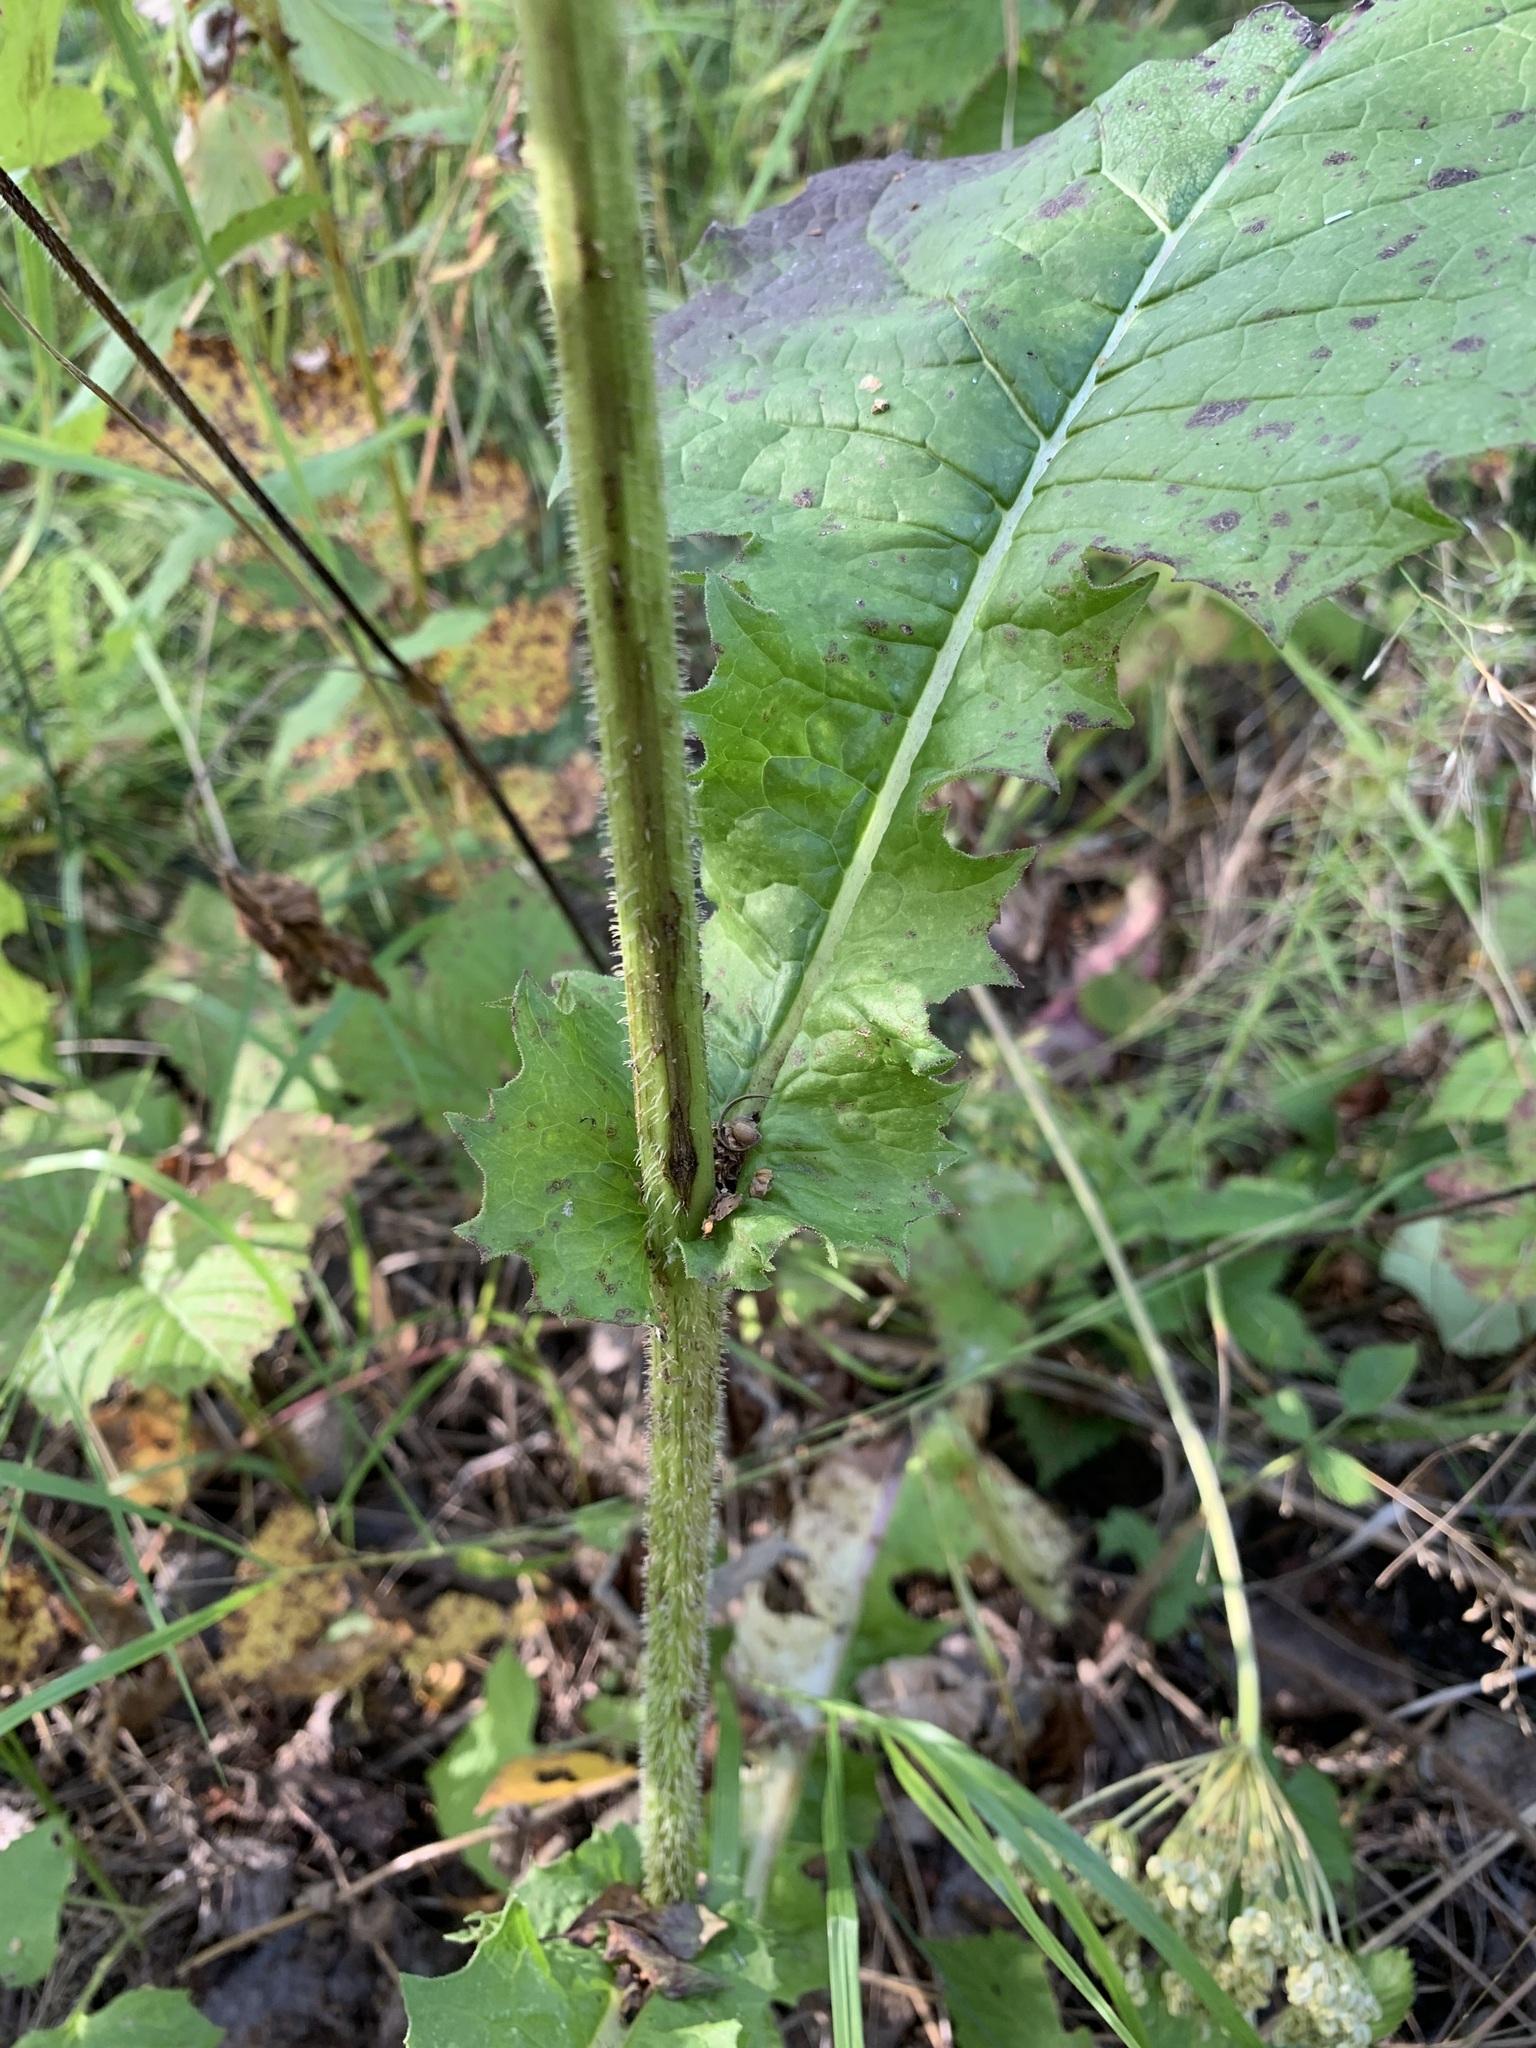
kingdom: Plantae
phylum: Tracheophyta
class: Magnoliopsida
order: Asterales
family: Asteraceae
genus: Crepis
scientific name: Crepis sibirica
